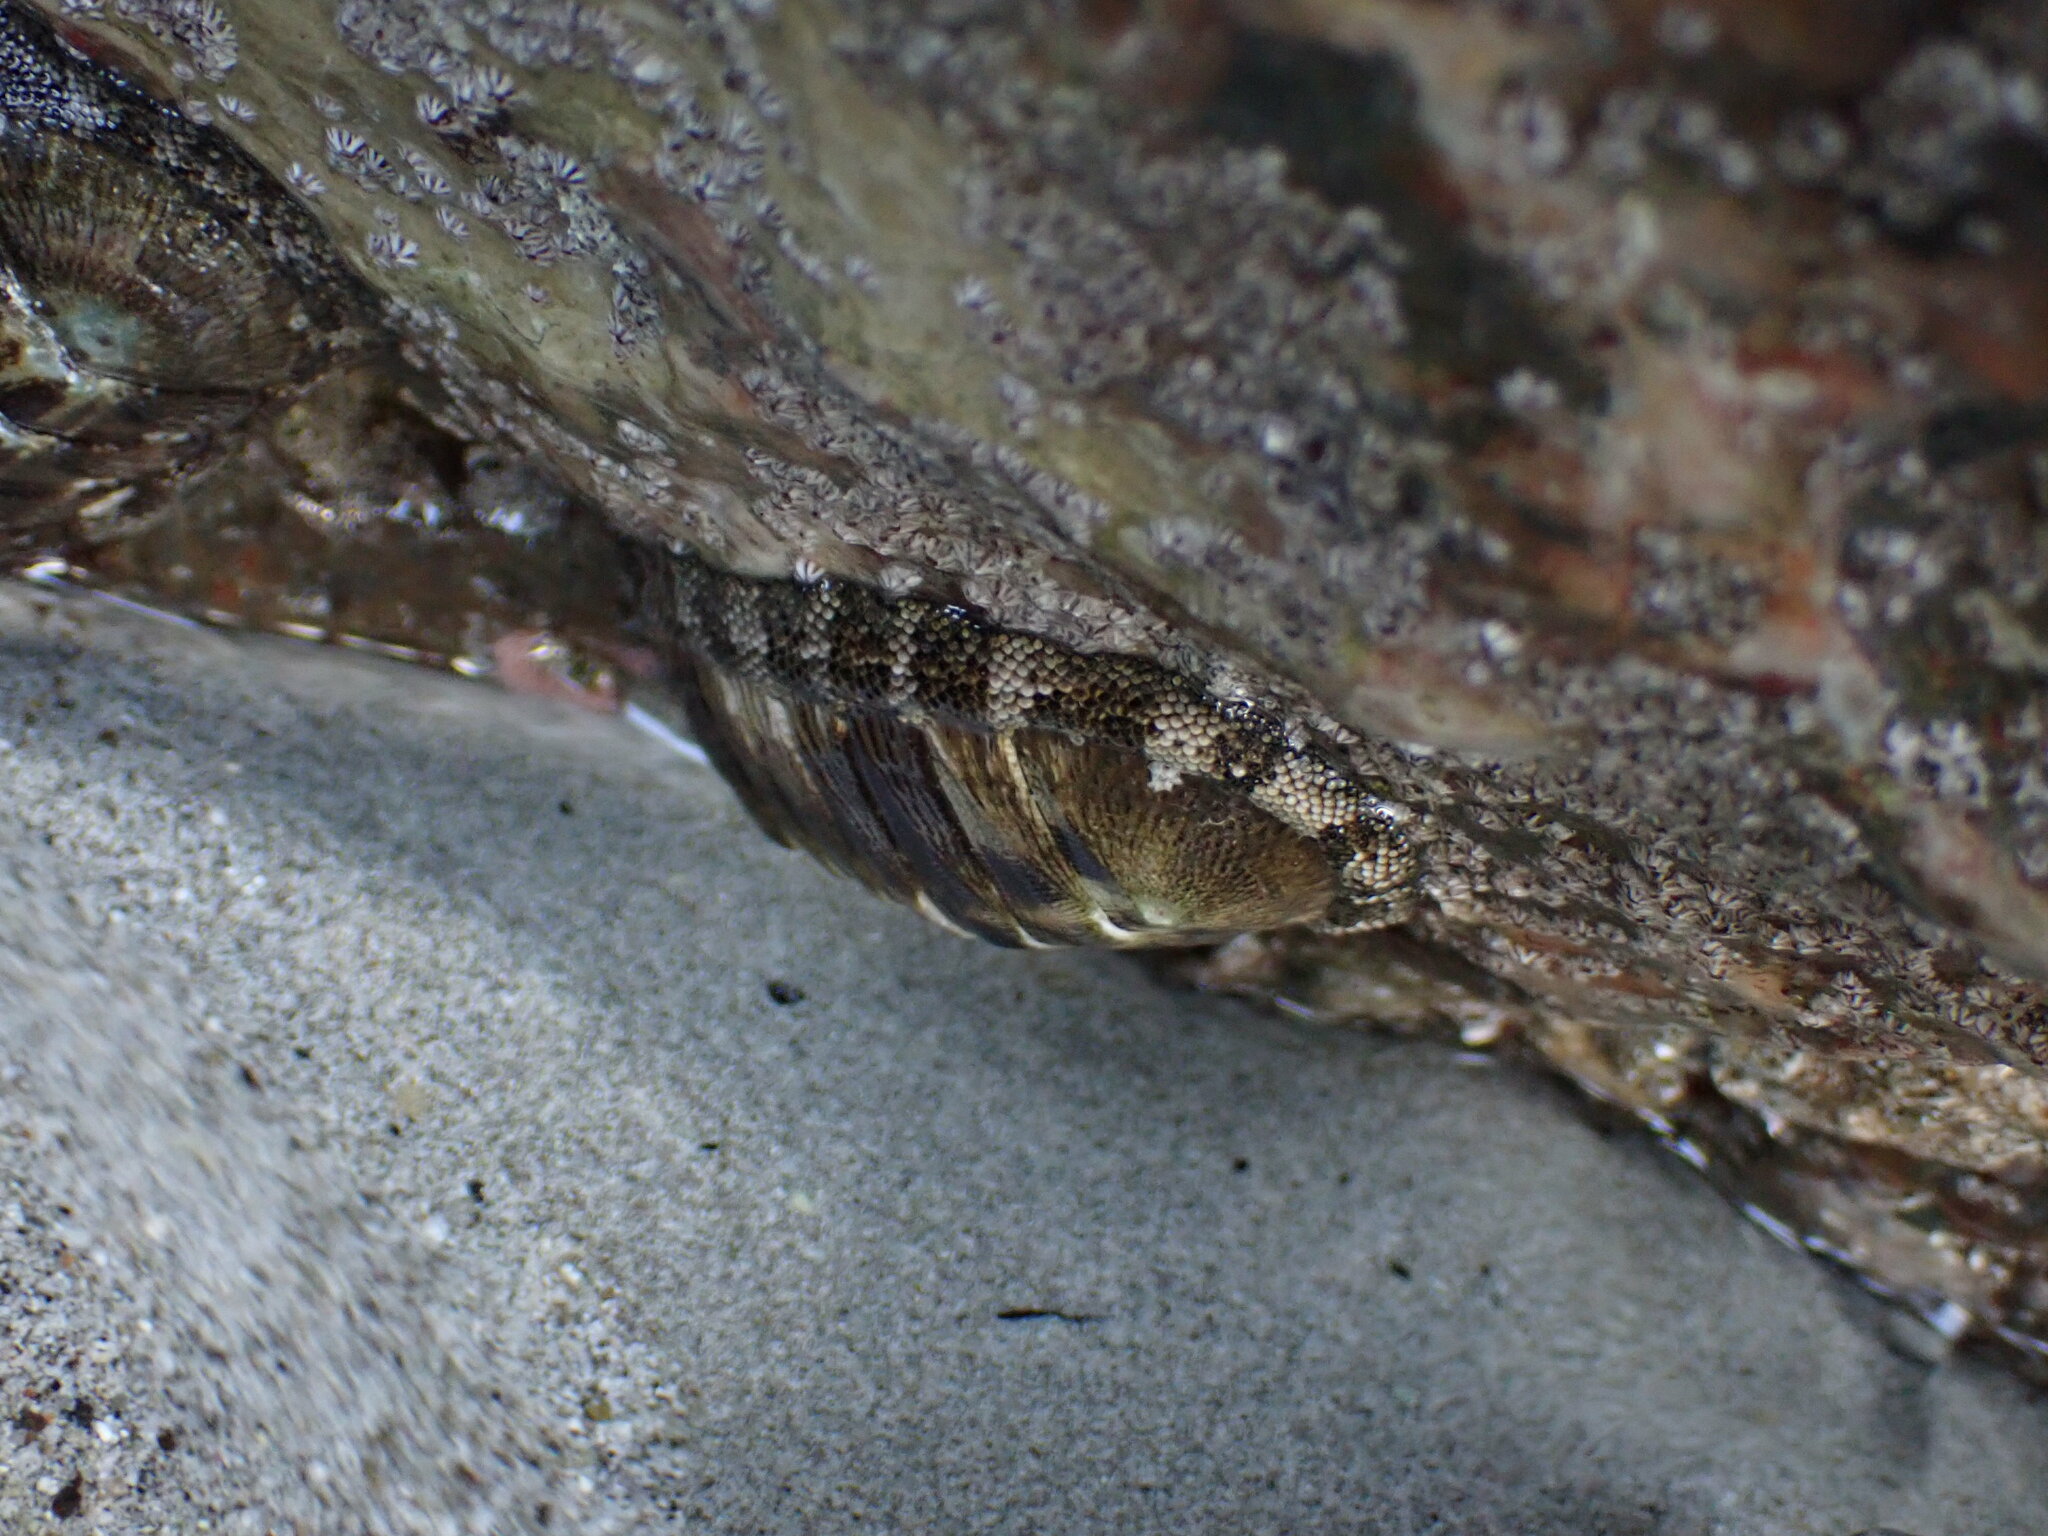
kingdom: Animalia
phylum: Mollusca
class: Polyplacophora
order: Chitonida
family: Chitonidae
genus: Chiton
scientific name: Chiton stokesii
